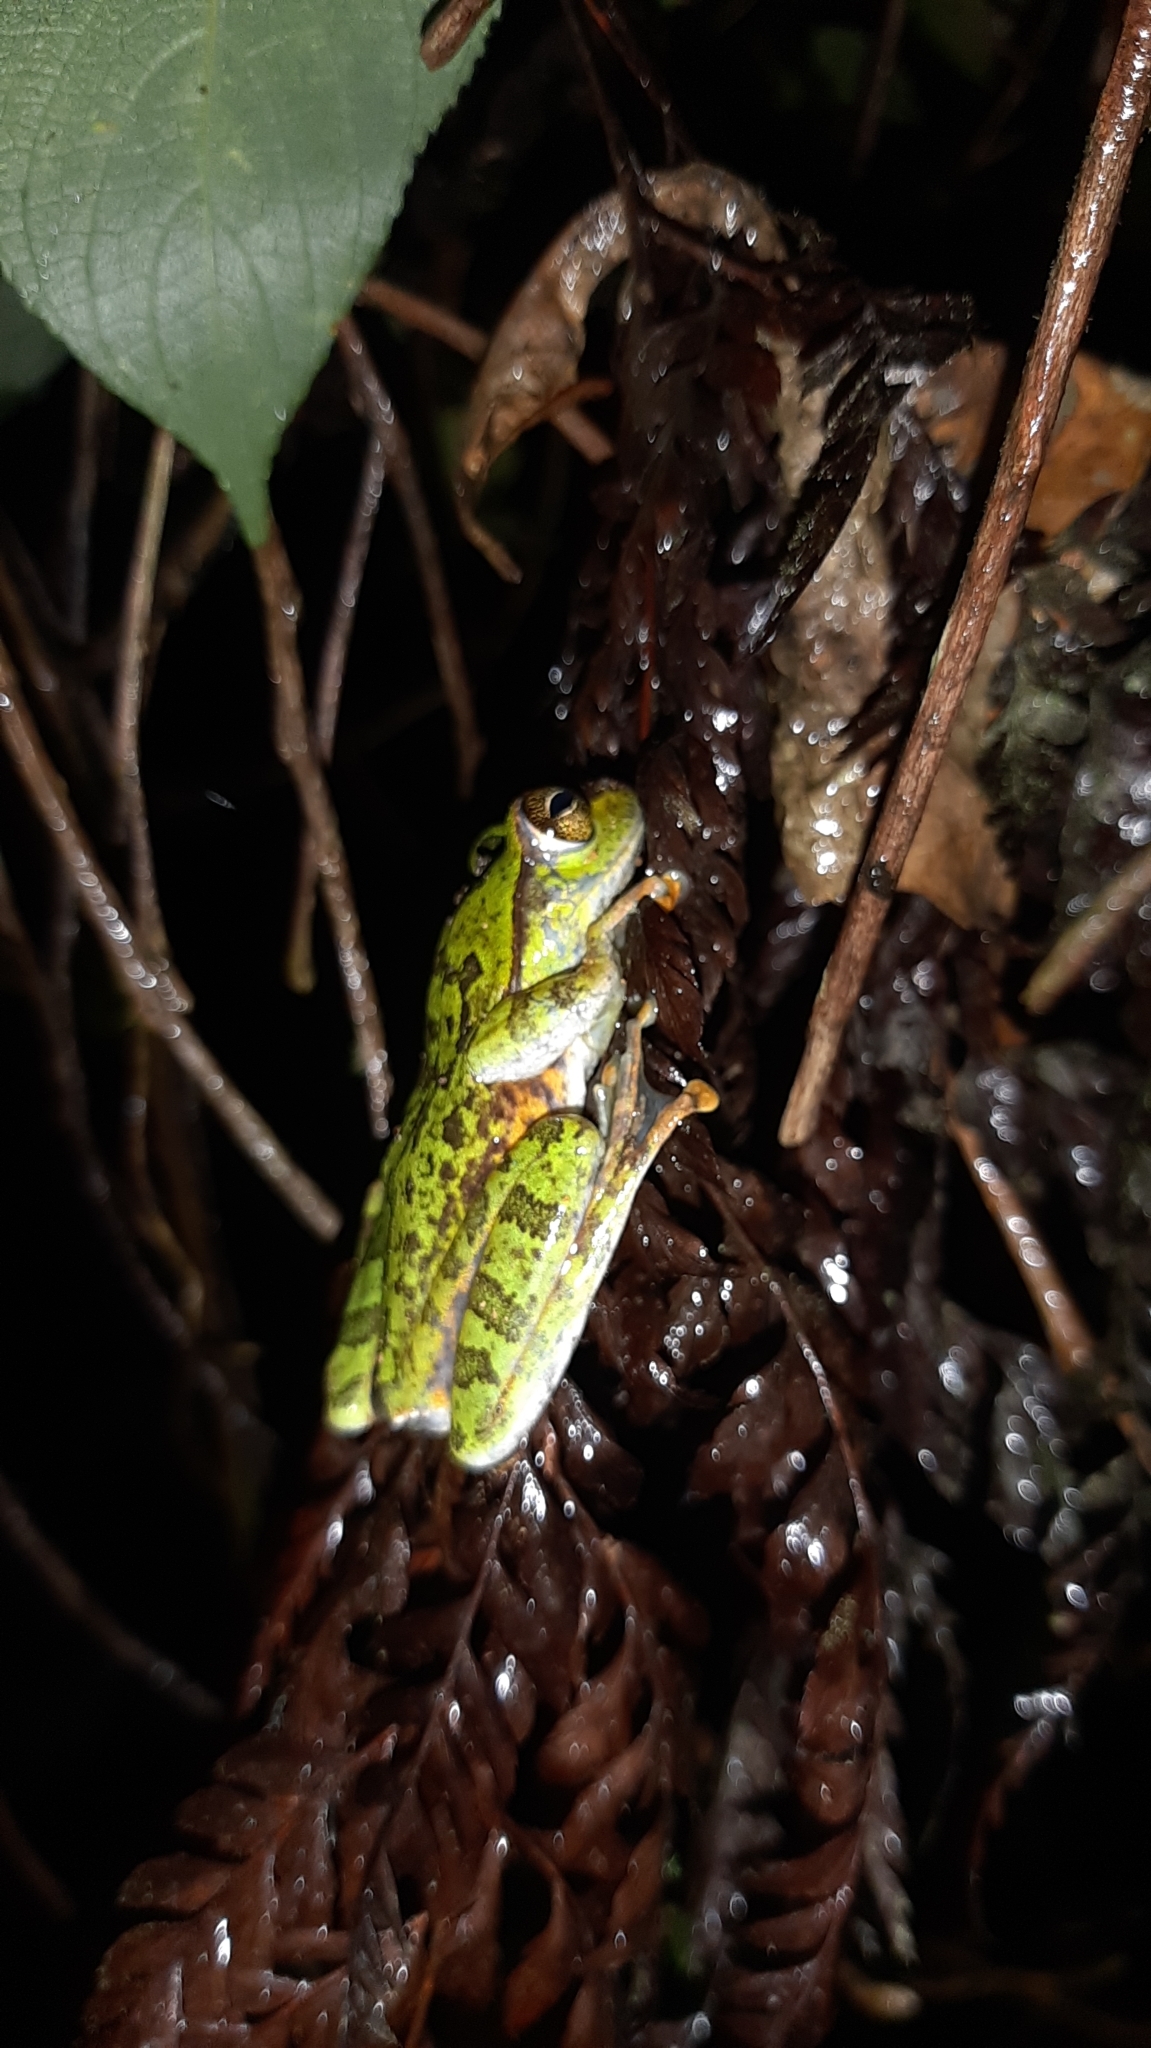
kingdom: Animalia
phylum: Chordata
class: Amphibia
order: Anura
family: Rhacophoridae
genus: Ghatixalus
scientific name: Ghatixalus variabilis
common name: Green frog of the neelgherries
